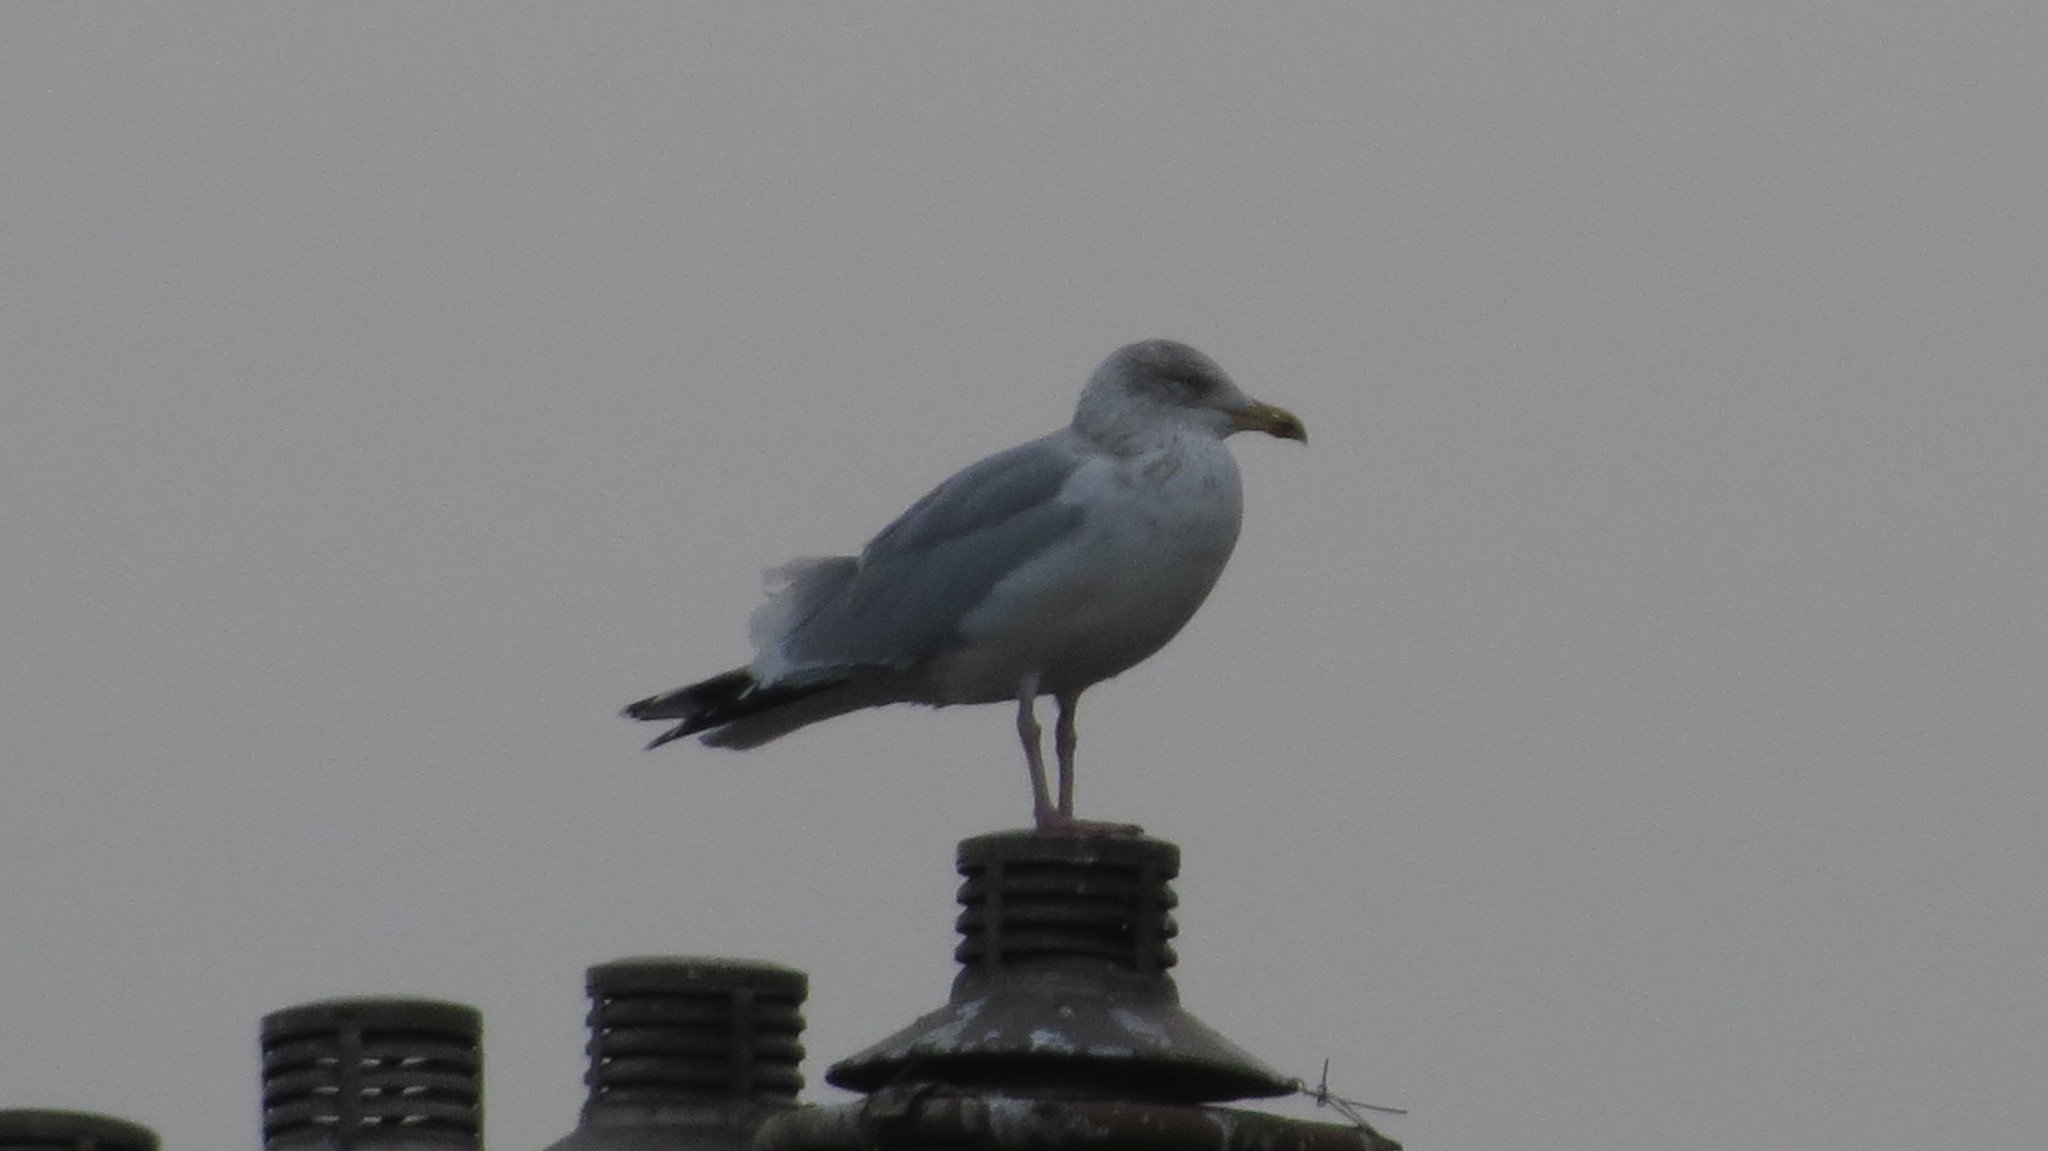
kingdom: Animalia
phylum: Chordata
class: Aves
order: Charadriiformes
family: Laridae
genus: Larus
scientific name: Larus argentatus
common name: Herring gull
